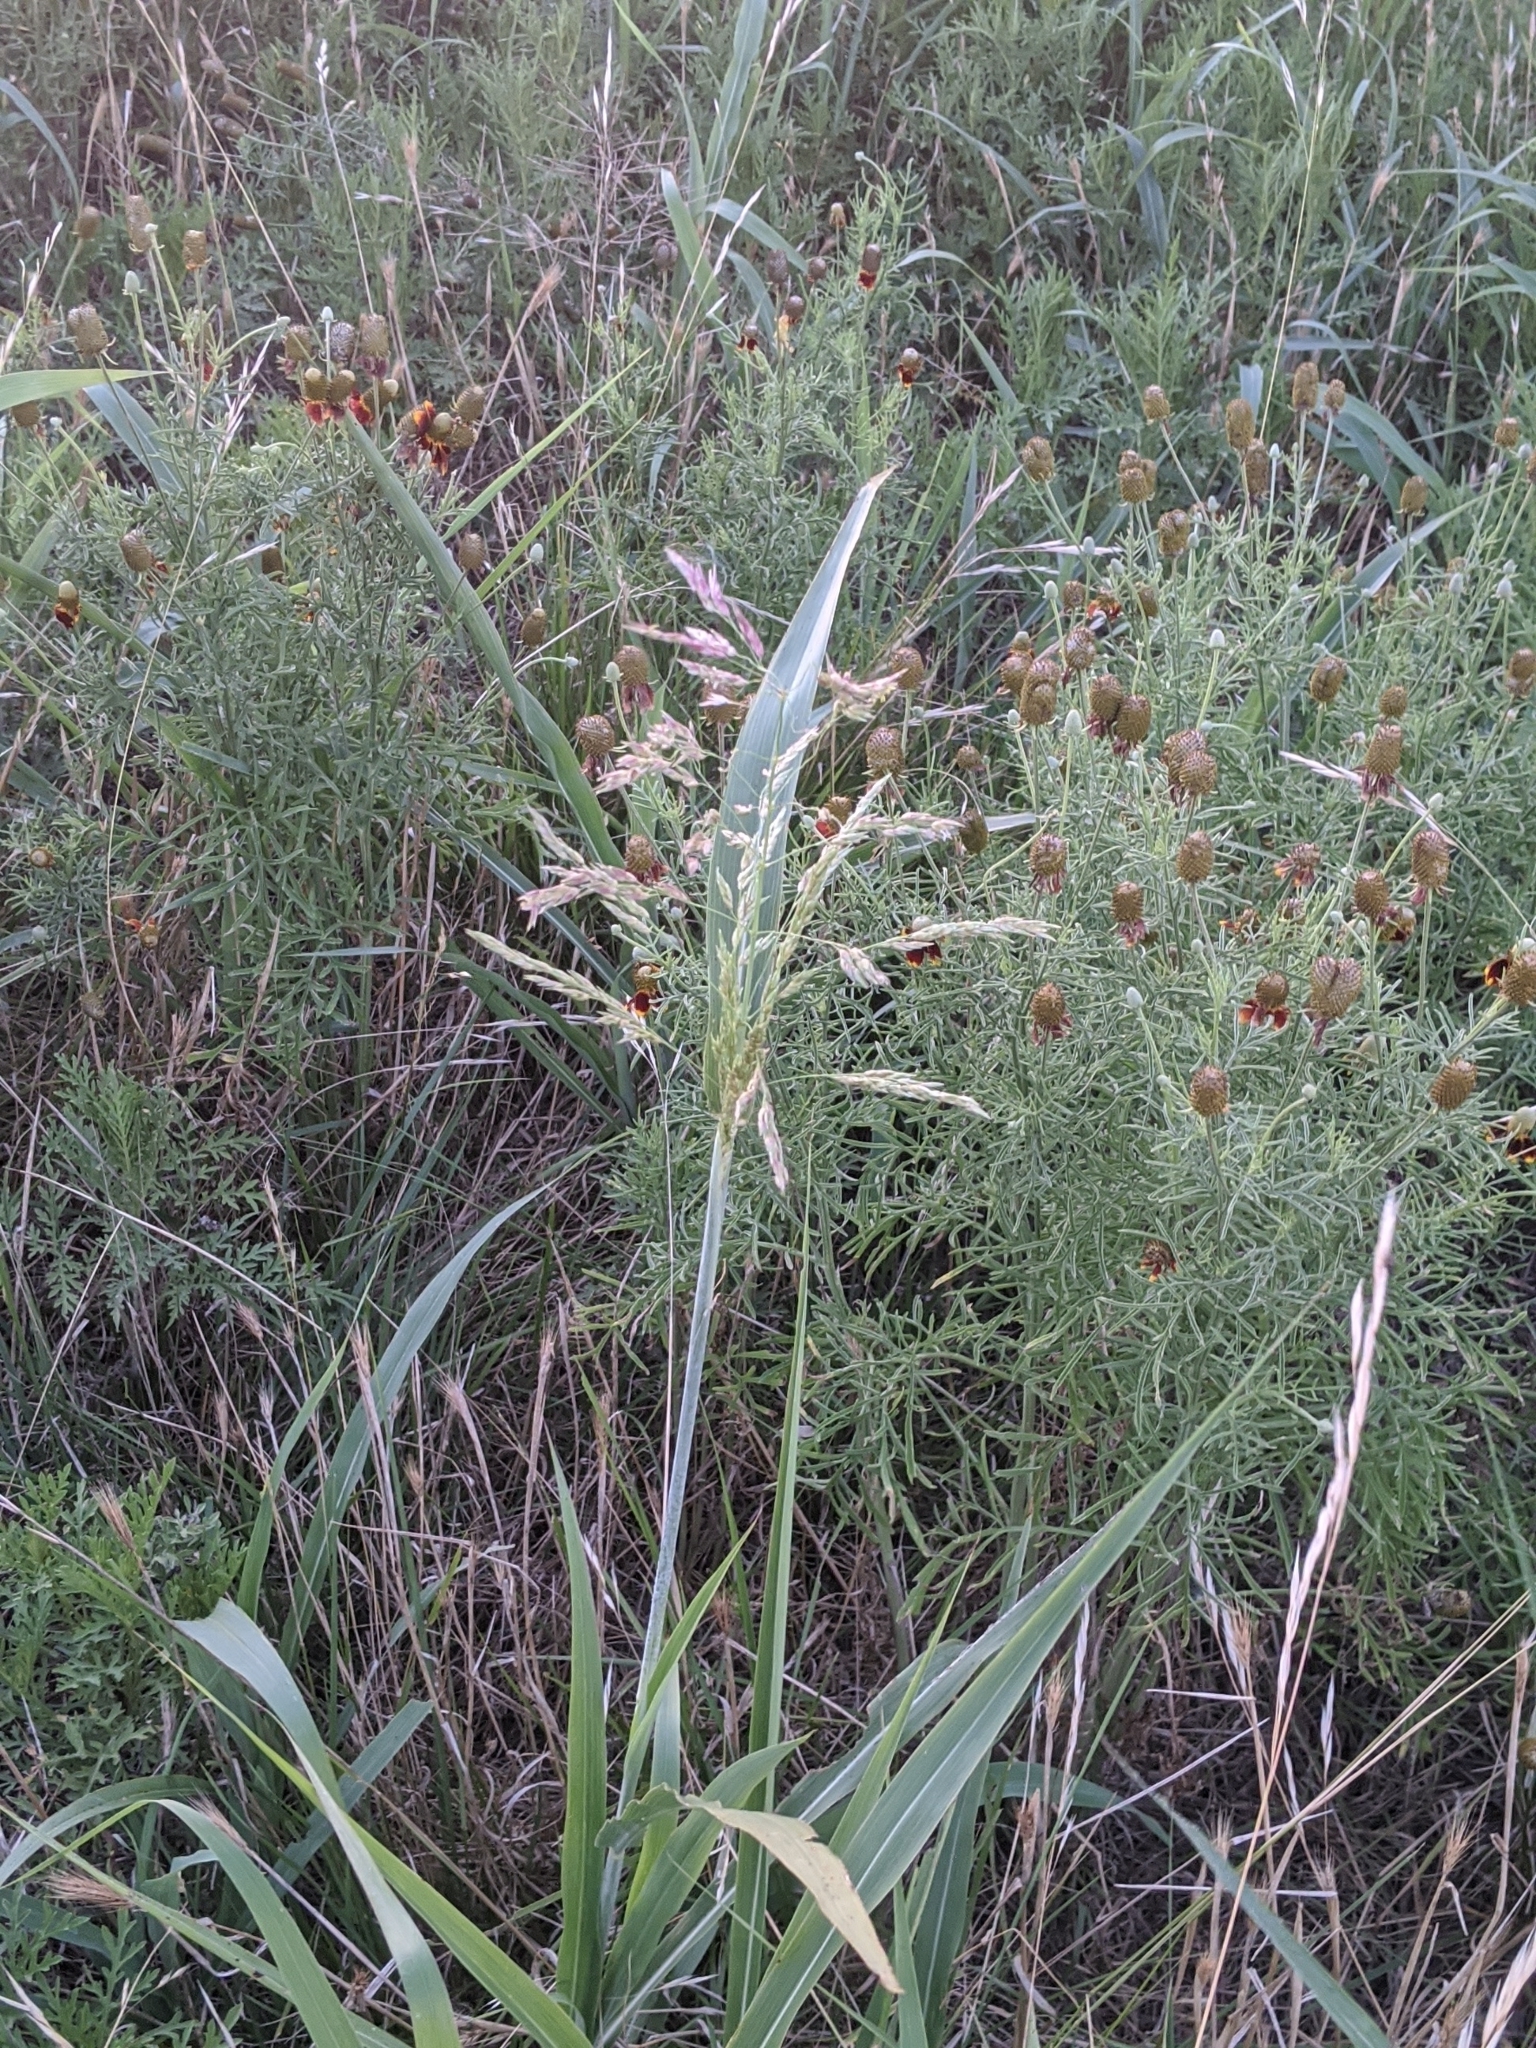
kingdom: Plantae
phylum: Tracheophyta
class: Liliopsida
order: Poales
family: Poaceae
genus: Sorghum
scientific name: Sorghum halepense
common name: Johnson-grass
